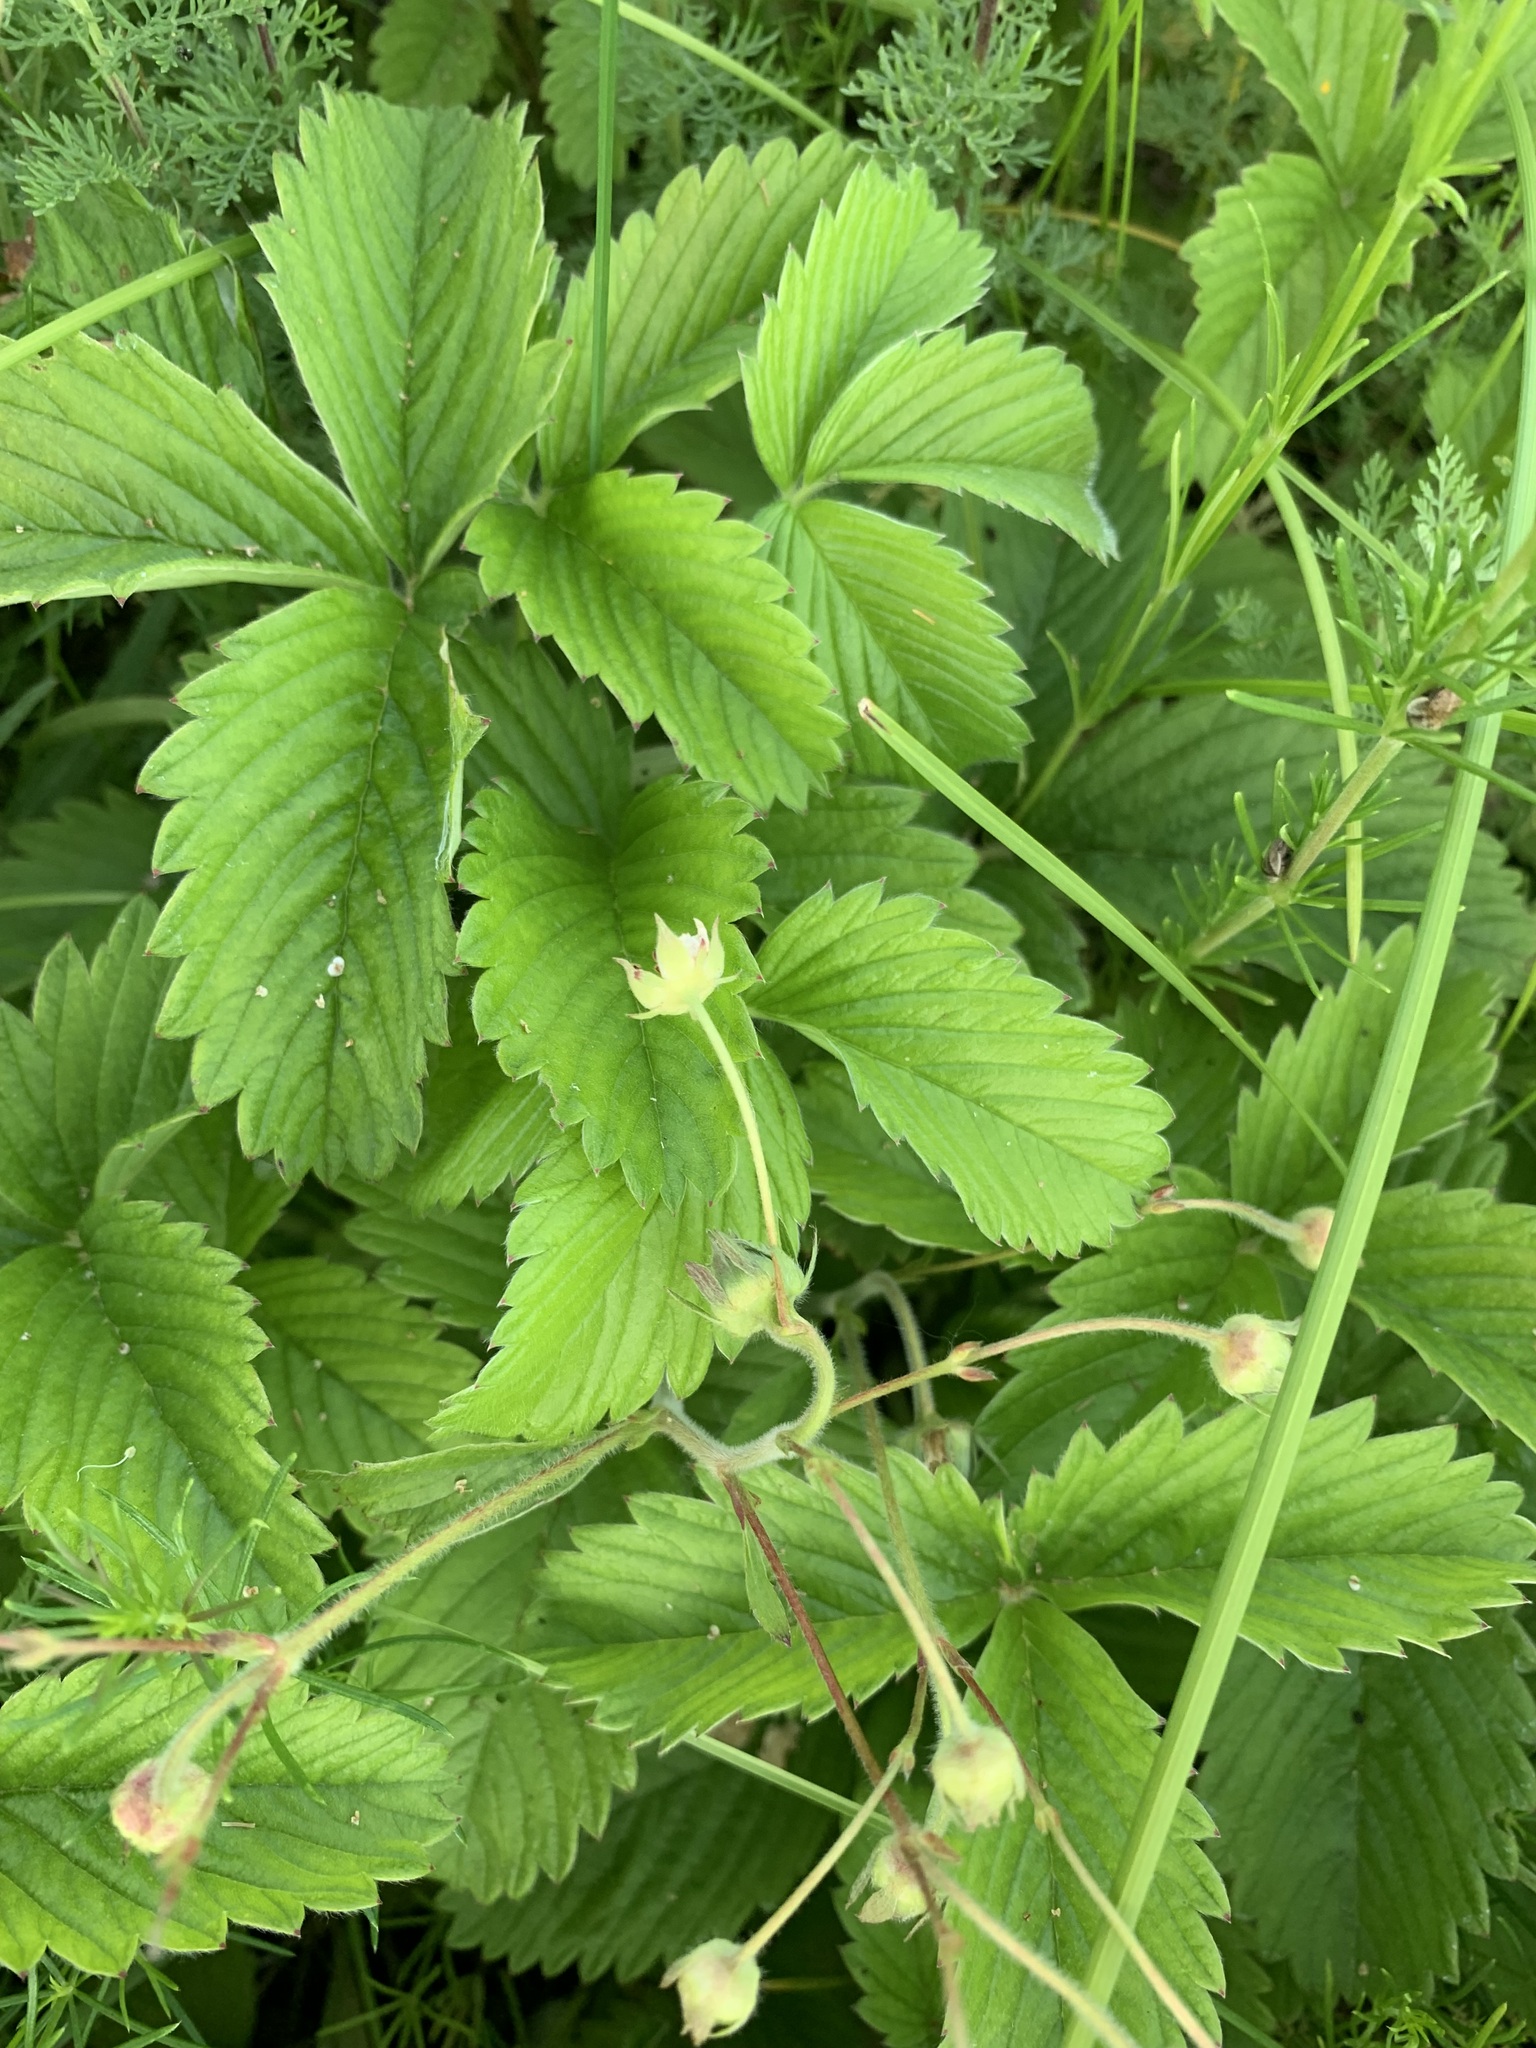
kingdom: Plantae
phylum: Tracheophyta
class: Magnoliopsida
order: Rosales
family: Rosaceae
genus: Fragaria
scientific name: Fragaria viridis
